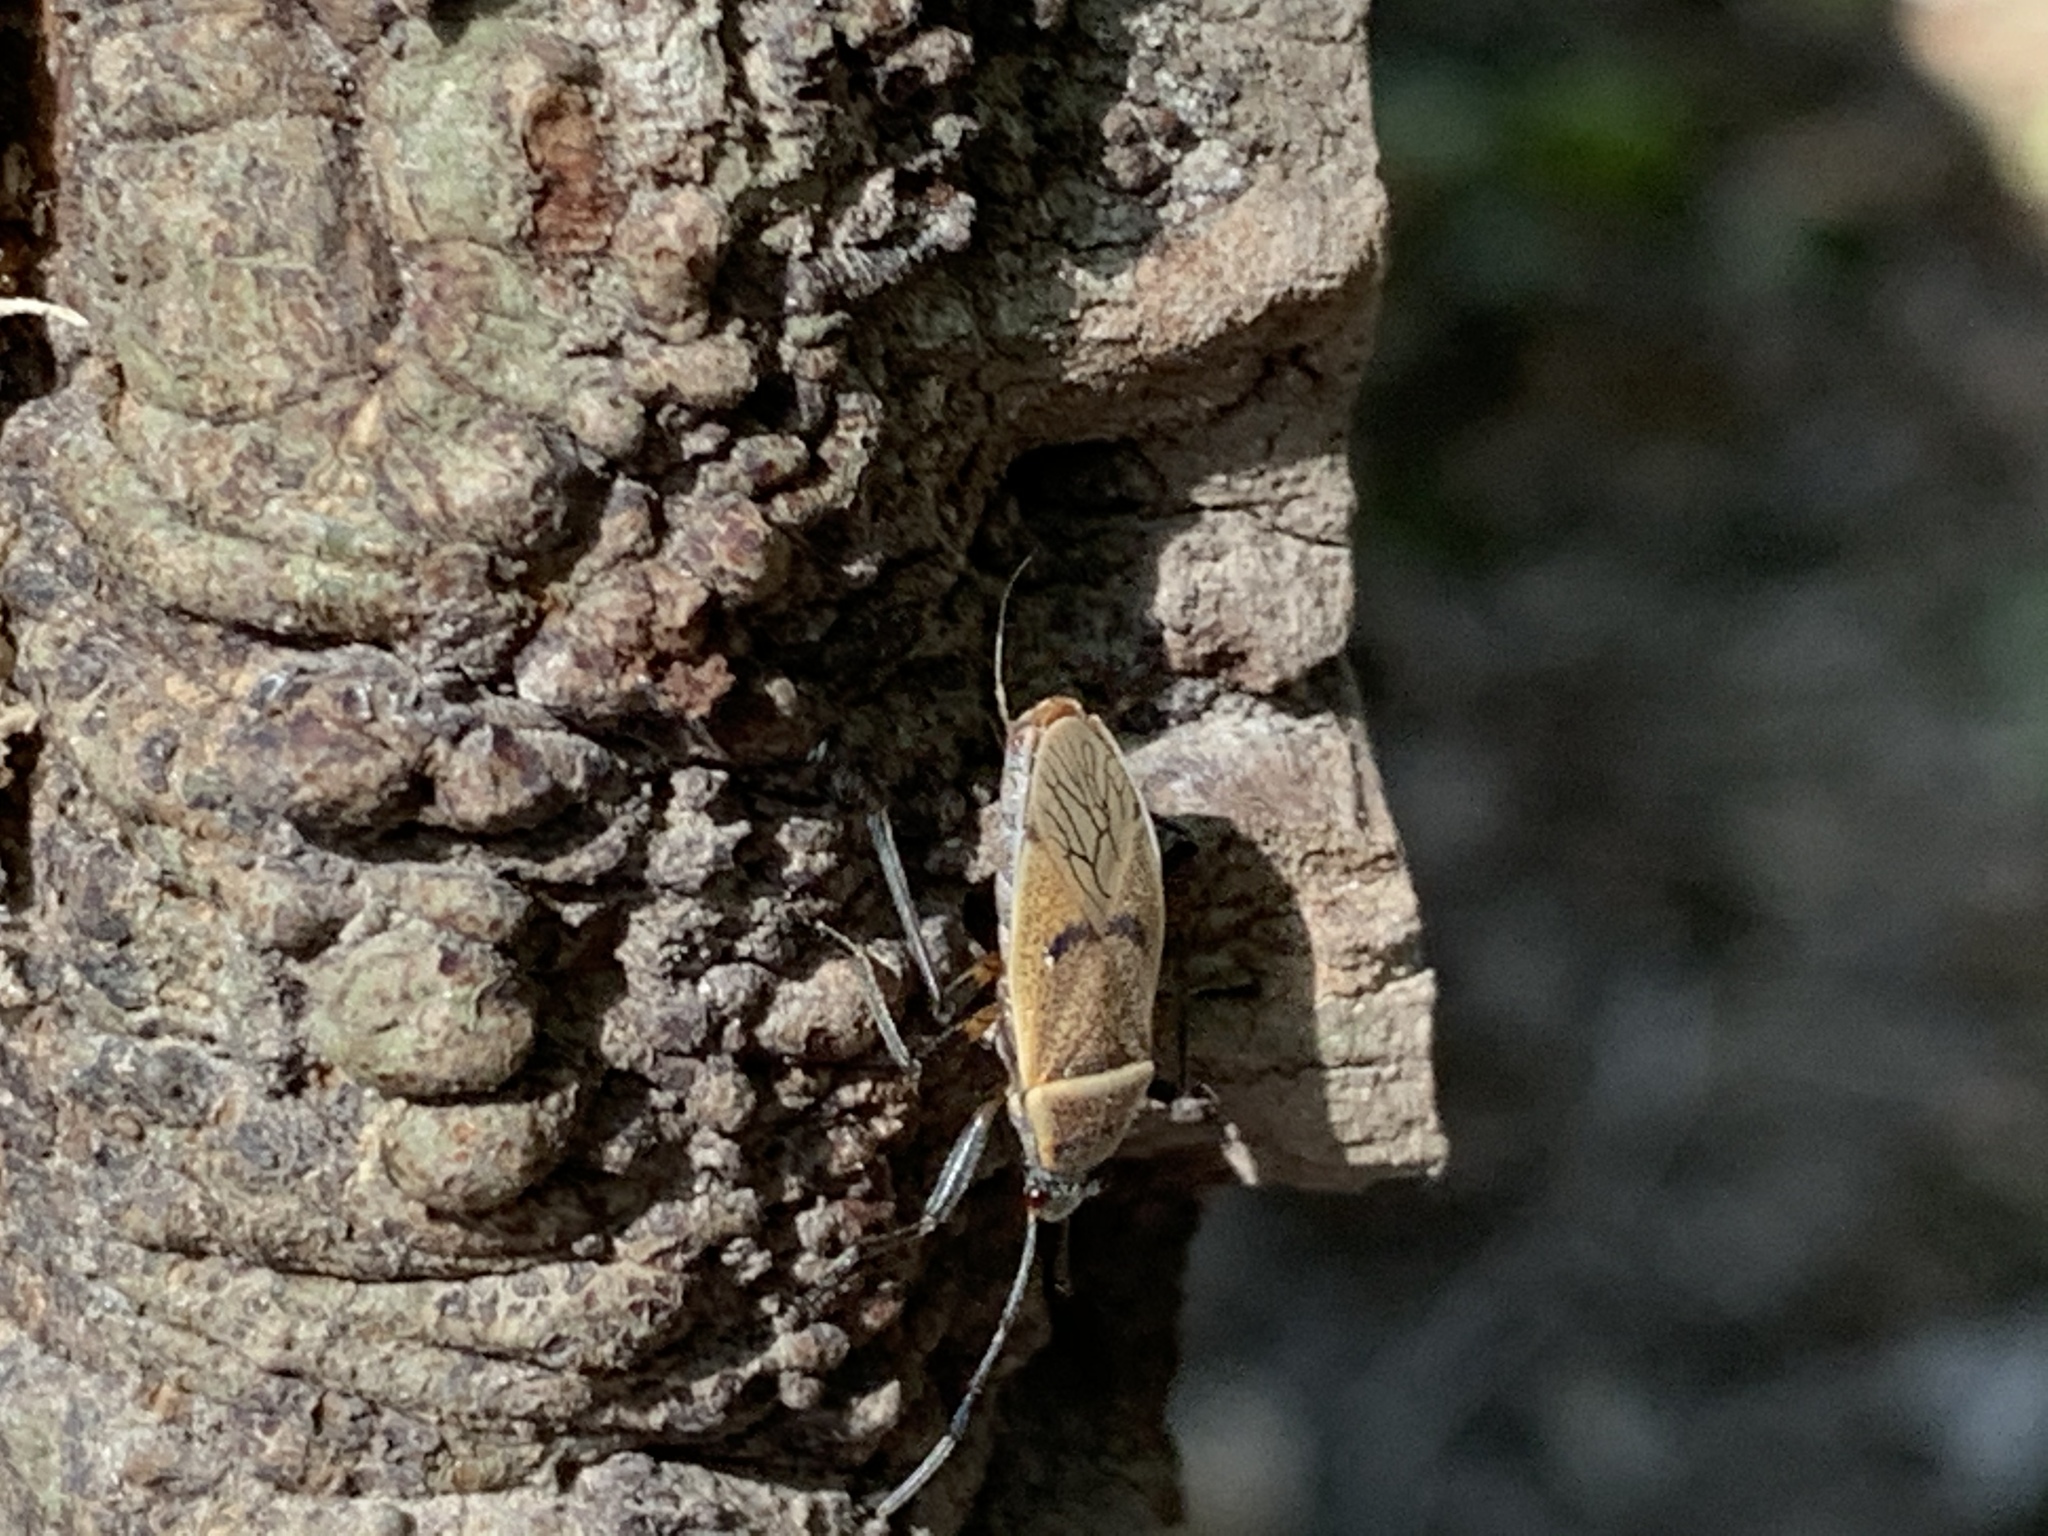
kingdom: Animalia
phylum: Arthropoda
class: Insecta
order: Hemiptera
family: Largidae
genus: Largus
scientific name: Largus maculatus
